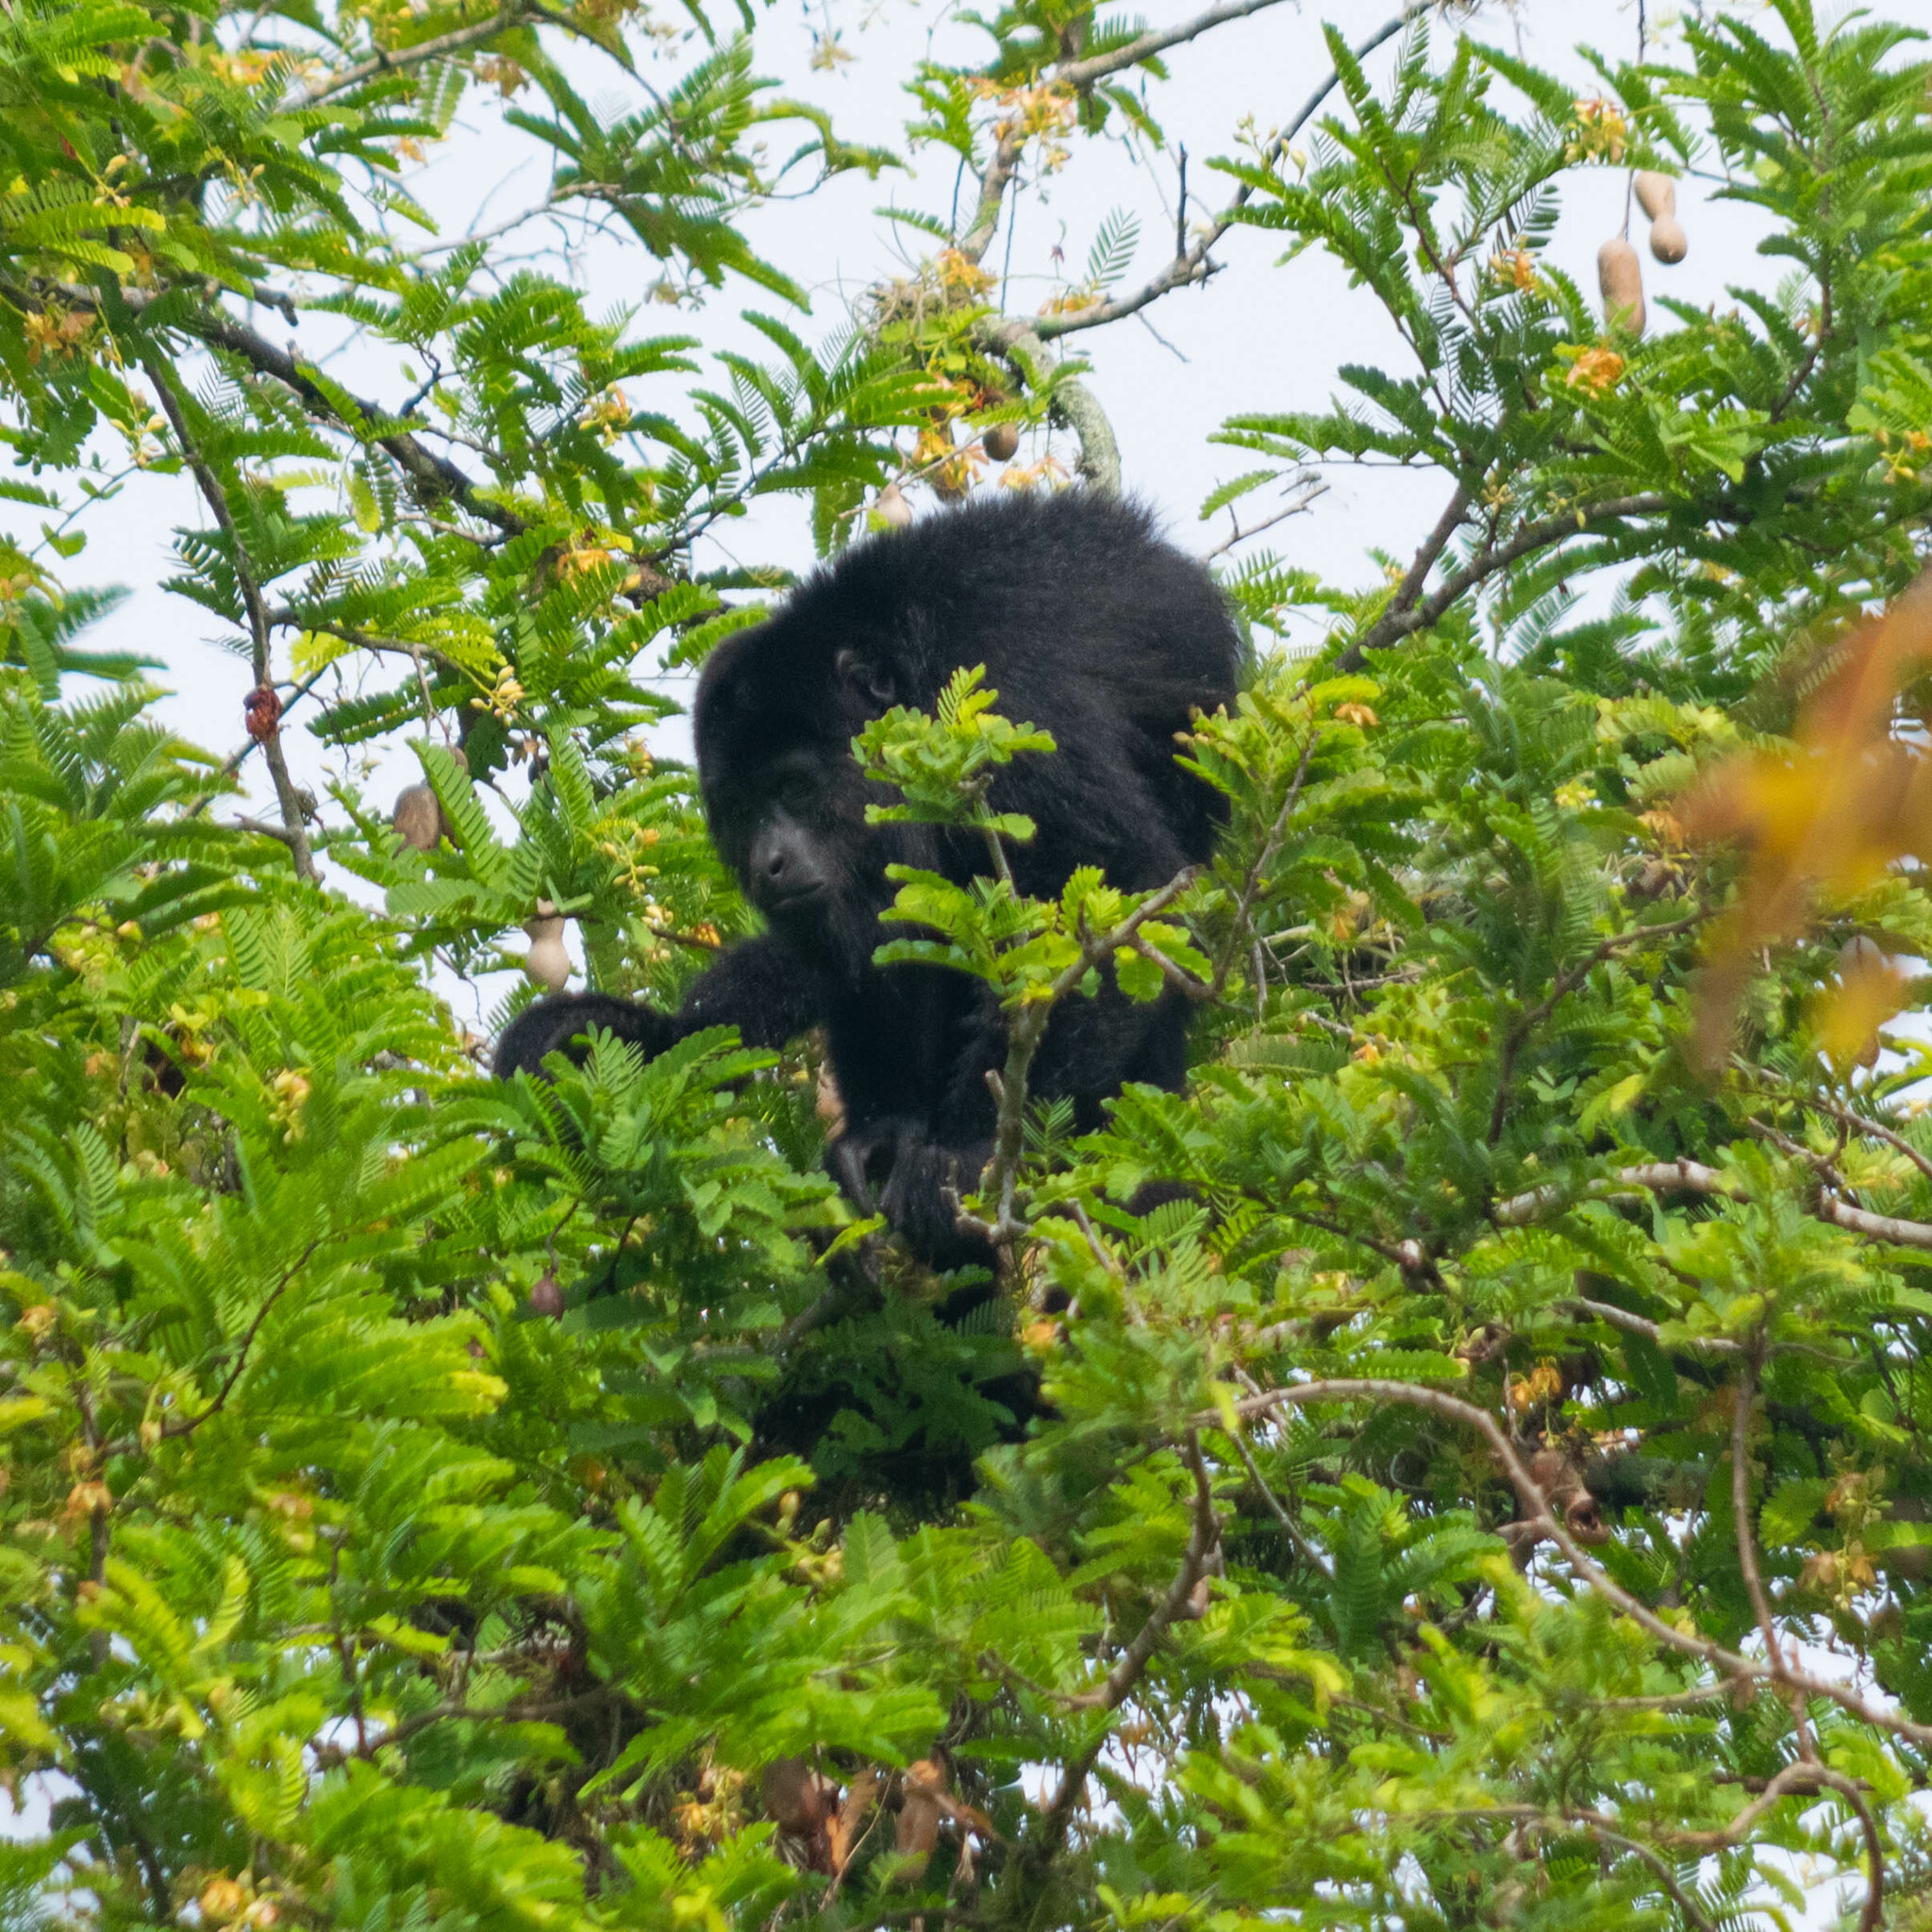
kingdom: Animalia
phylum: Chordata
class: Mammalia
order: Primates
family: Atelidae
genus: Alouatta
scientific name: Alouatta pigra
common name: Guatemalan black howler
